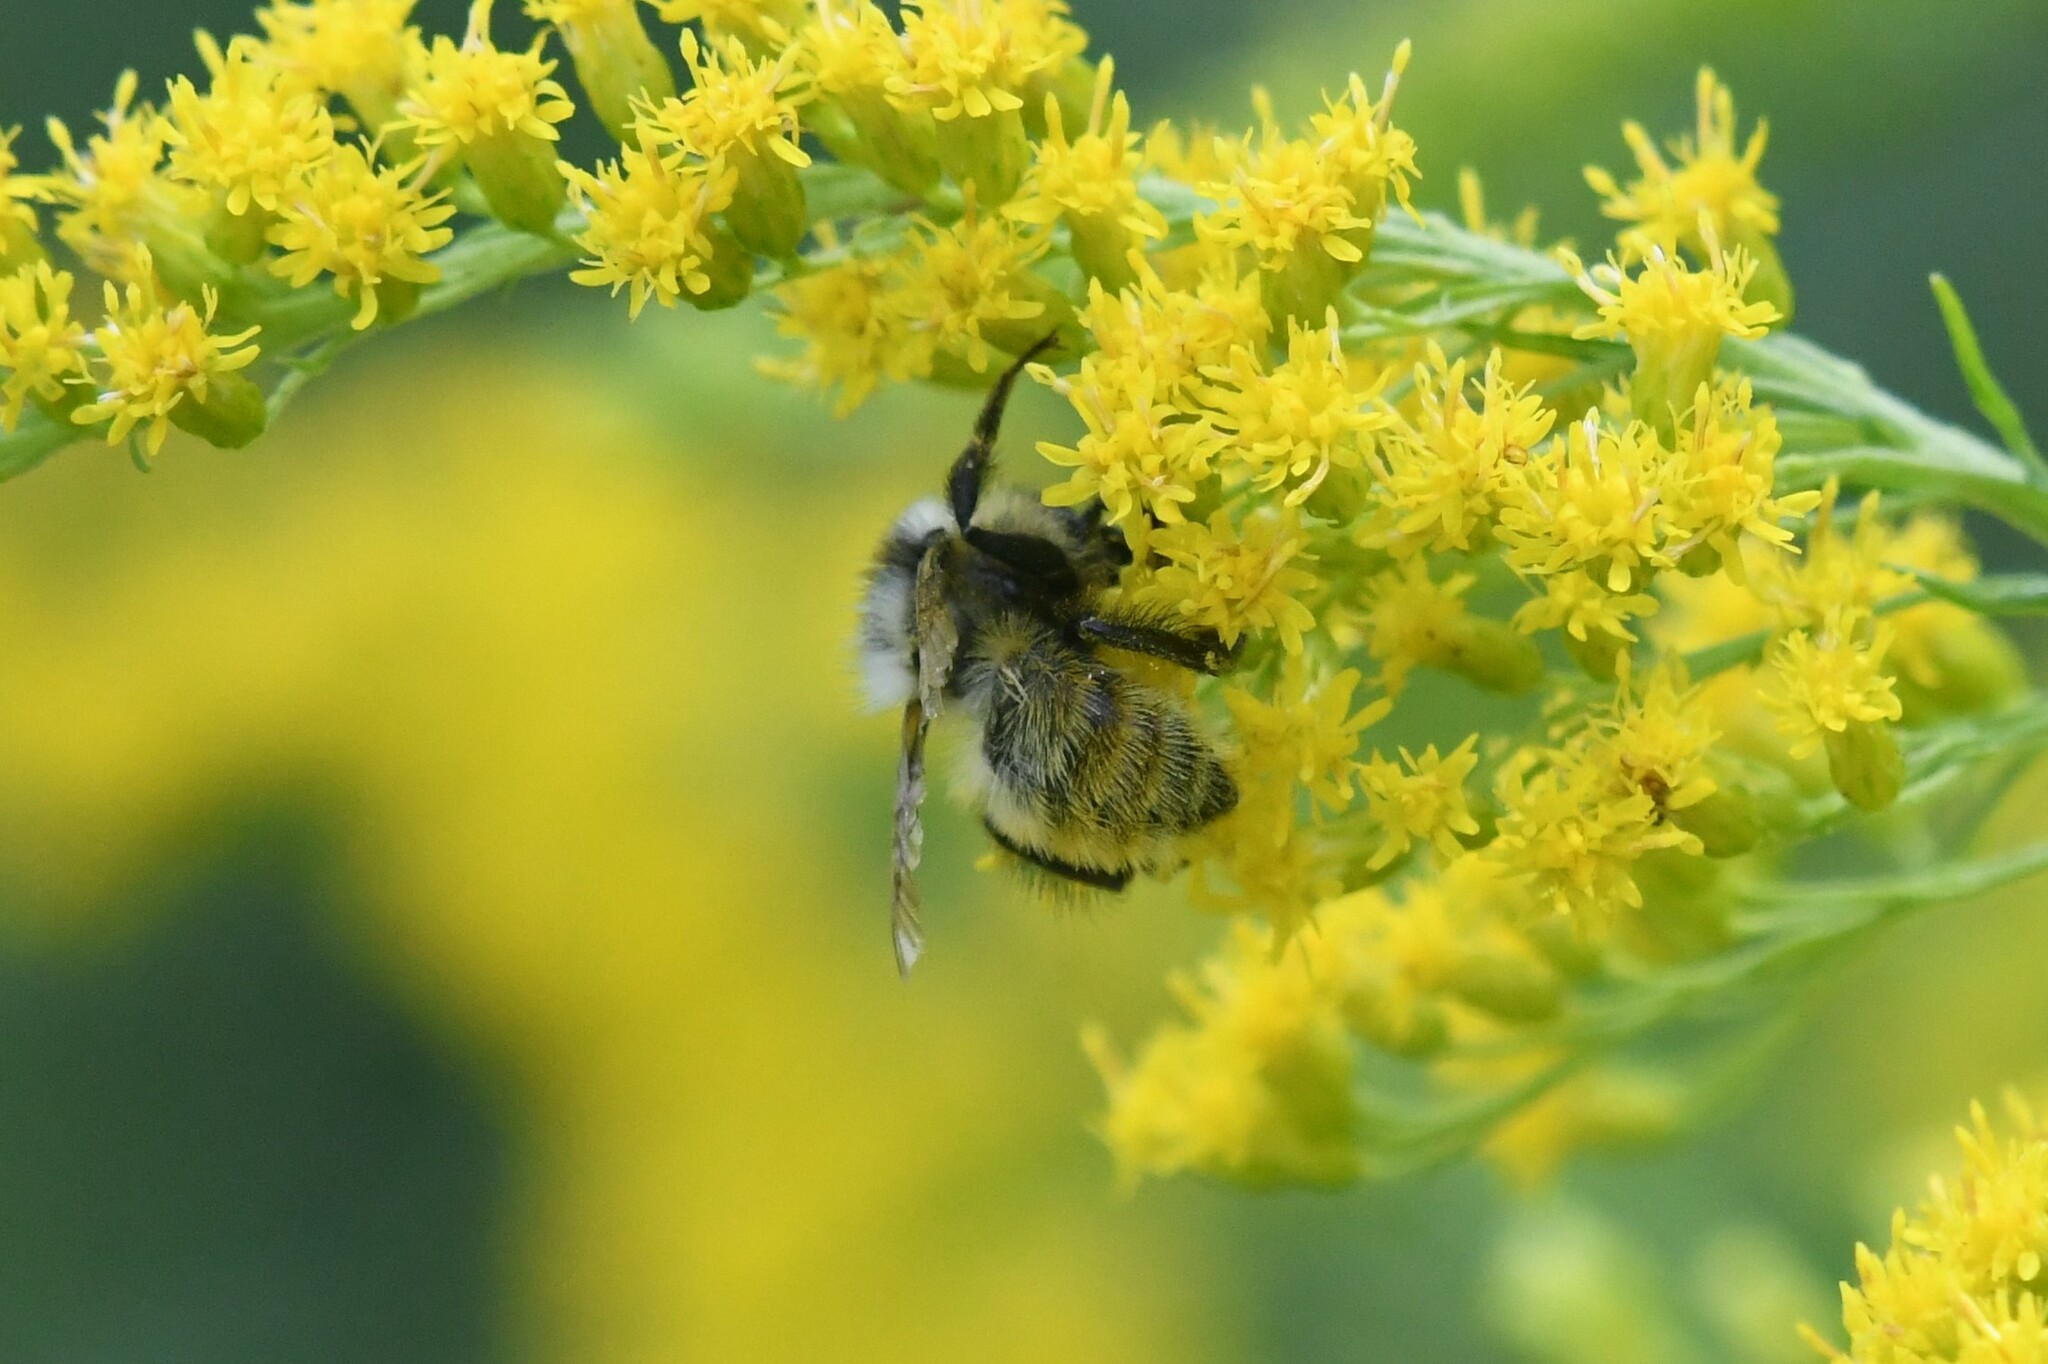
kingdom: Animalia
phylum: Arthropoda
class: Insecta
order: Hymenoptera
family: Apidae
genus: Bombus
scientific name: Bombus rufocinctus
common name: Red-belted bumble bee
